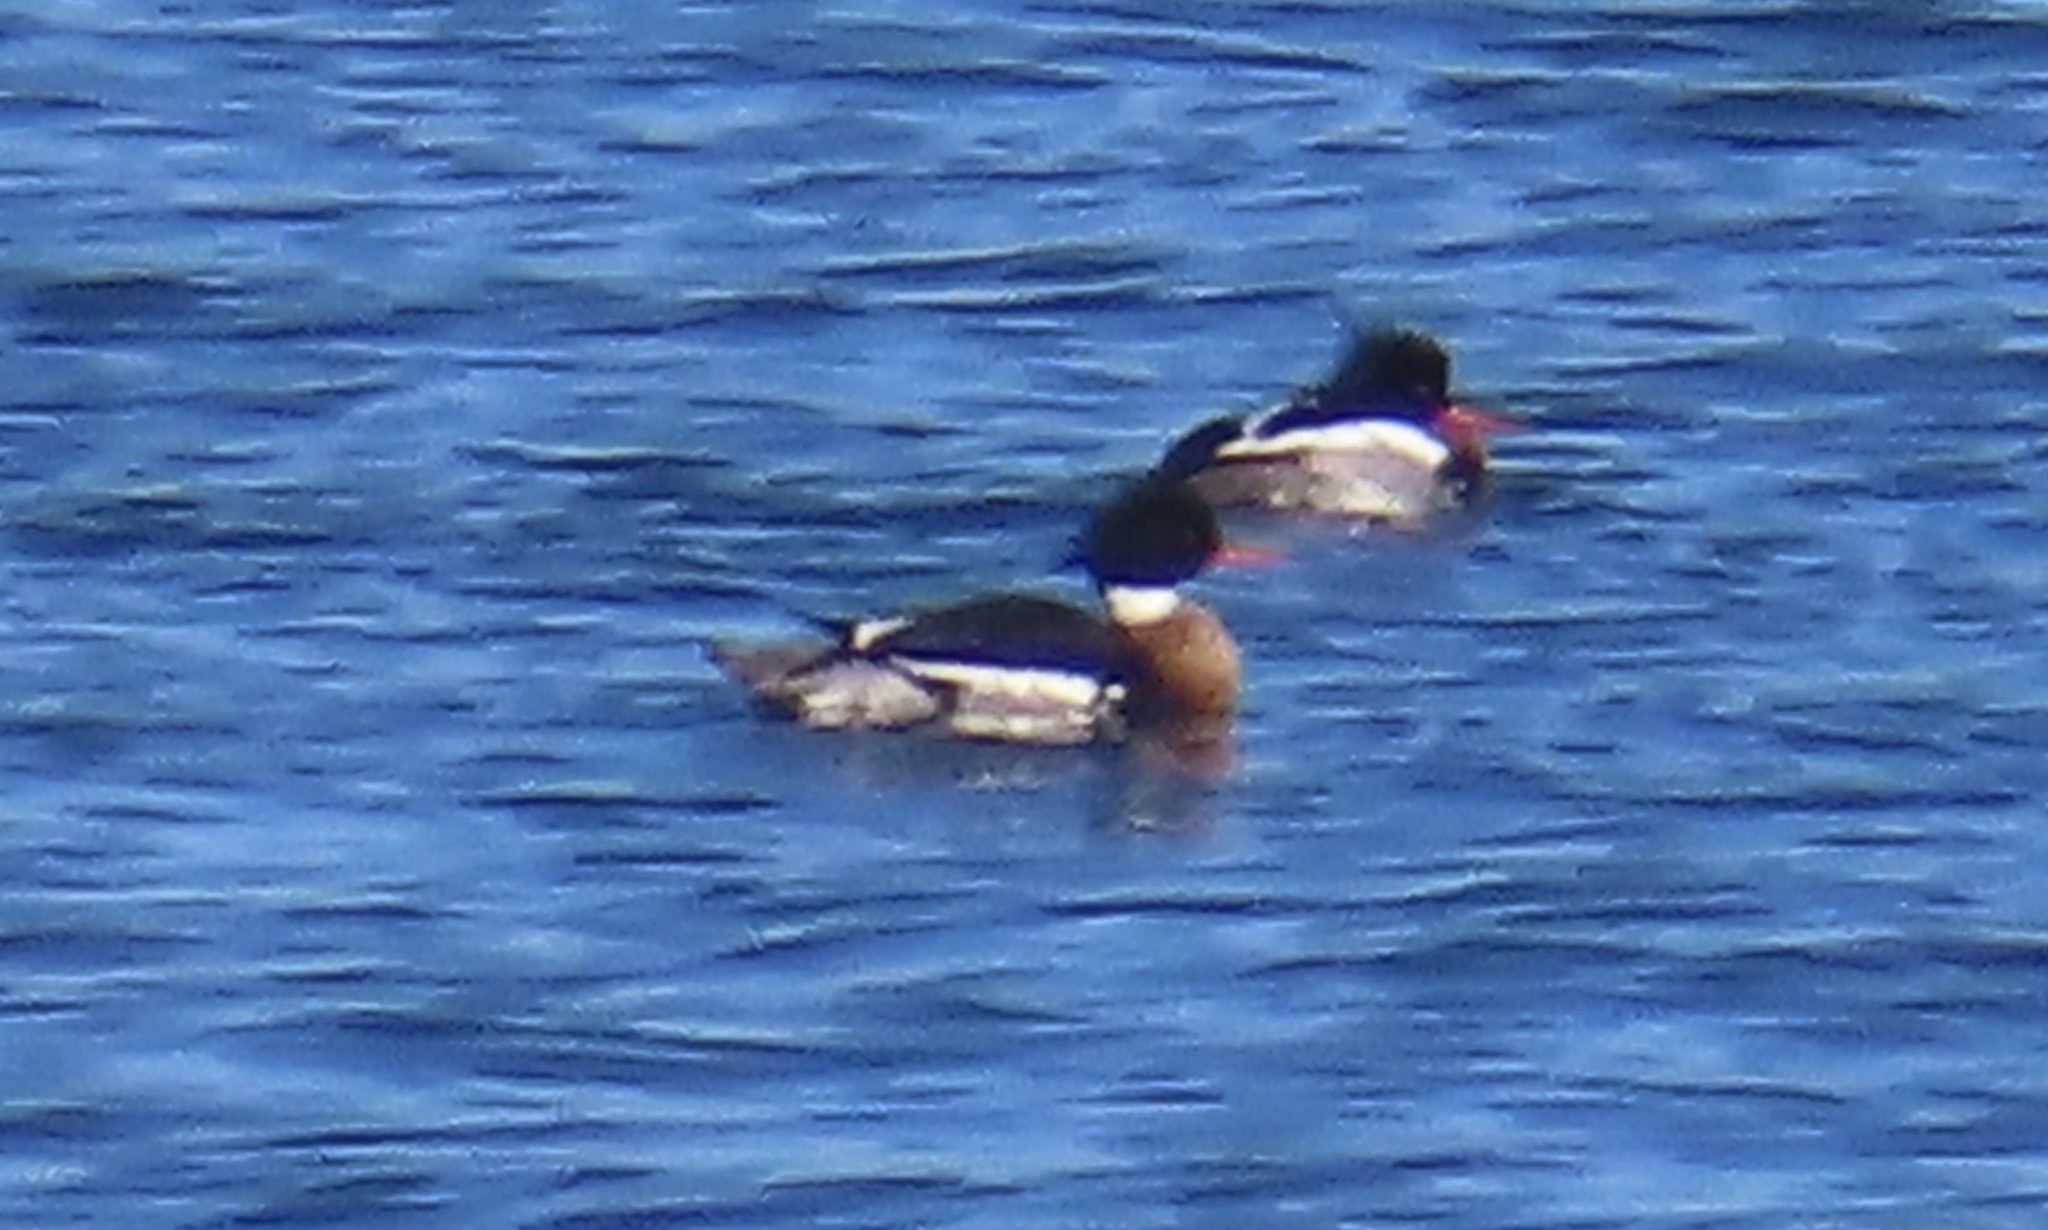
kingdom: Animalia
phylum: Chordata
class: Aves
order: Anseriformes
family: Anatidae
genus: Mergus
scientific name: Mergus serrator
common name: Red-breasted merganser
